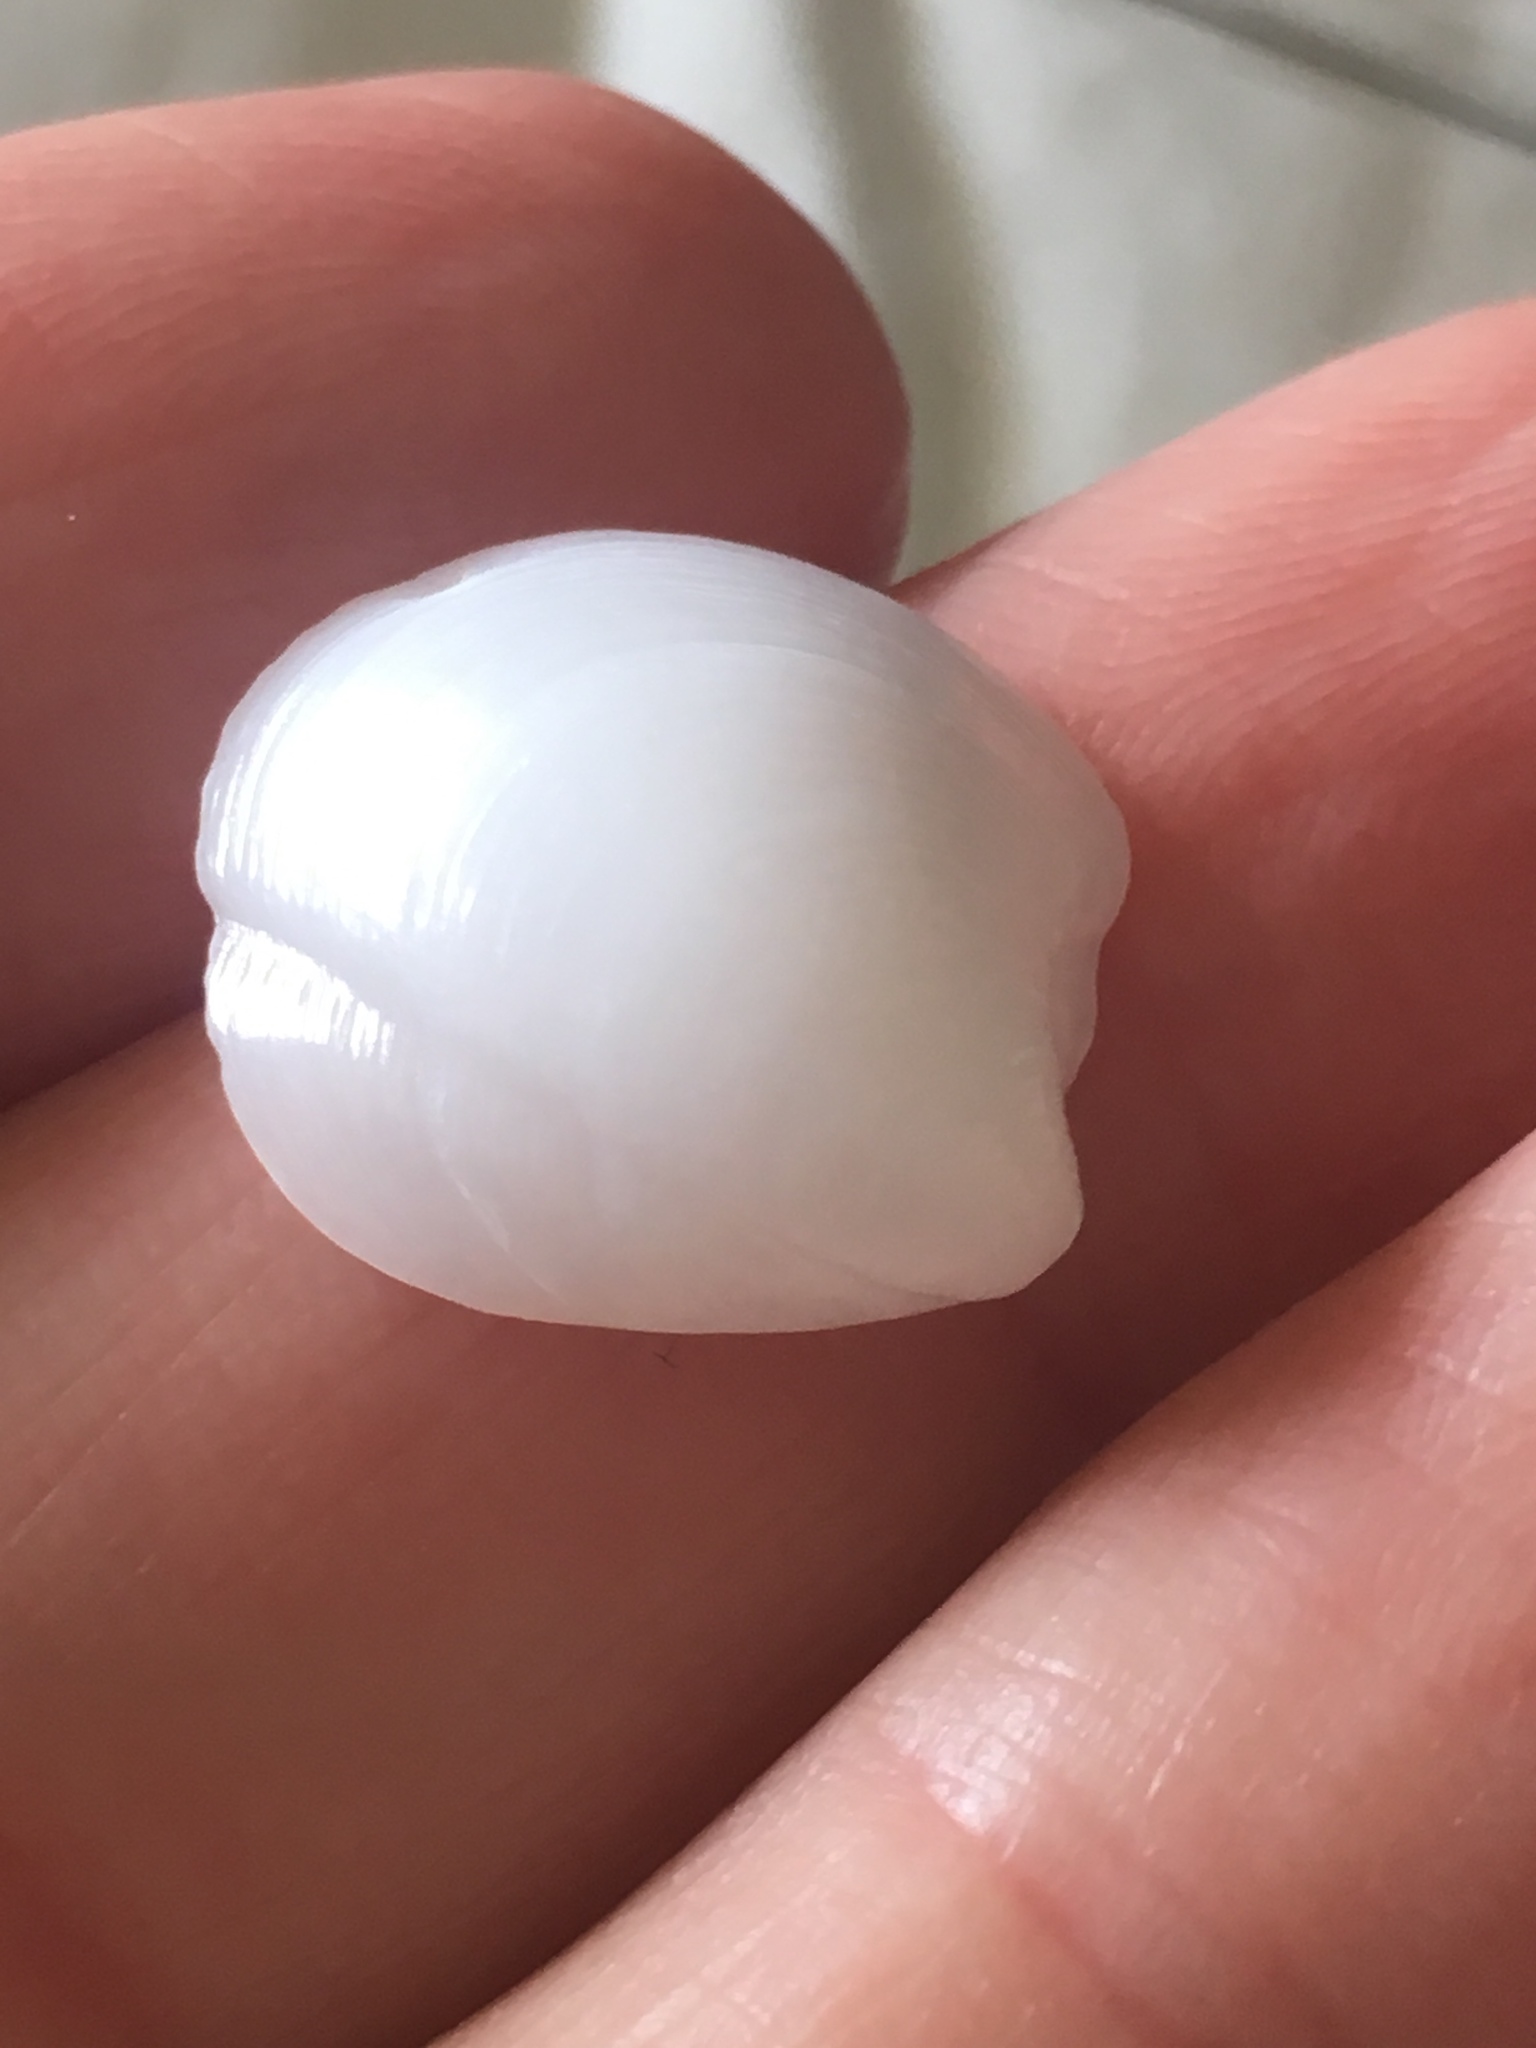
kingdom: Animalia
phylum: Mollusca
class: Bivalvia
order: Lucinida
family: Lucinidae
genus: Lucina
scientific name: Lucina pensylvanica
